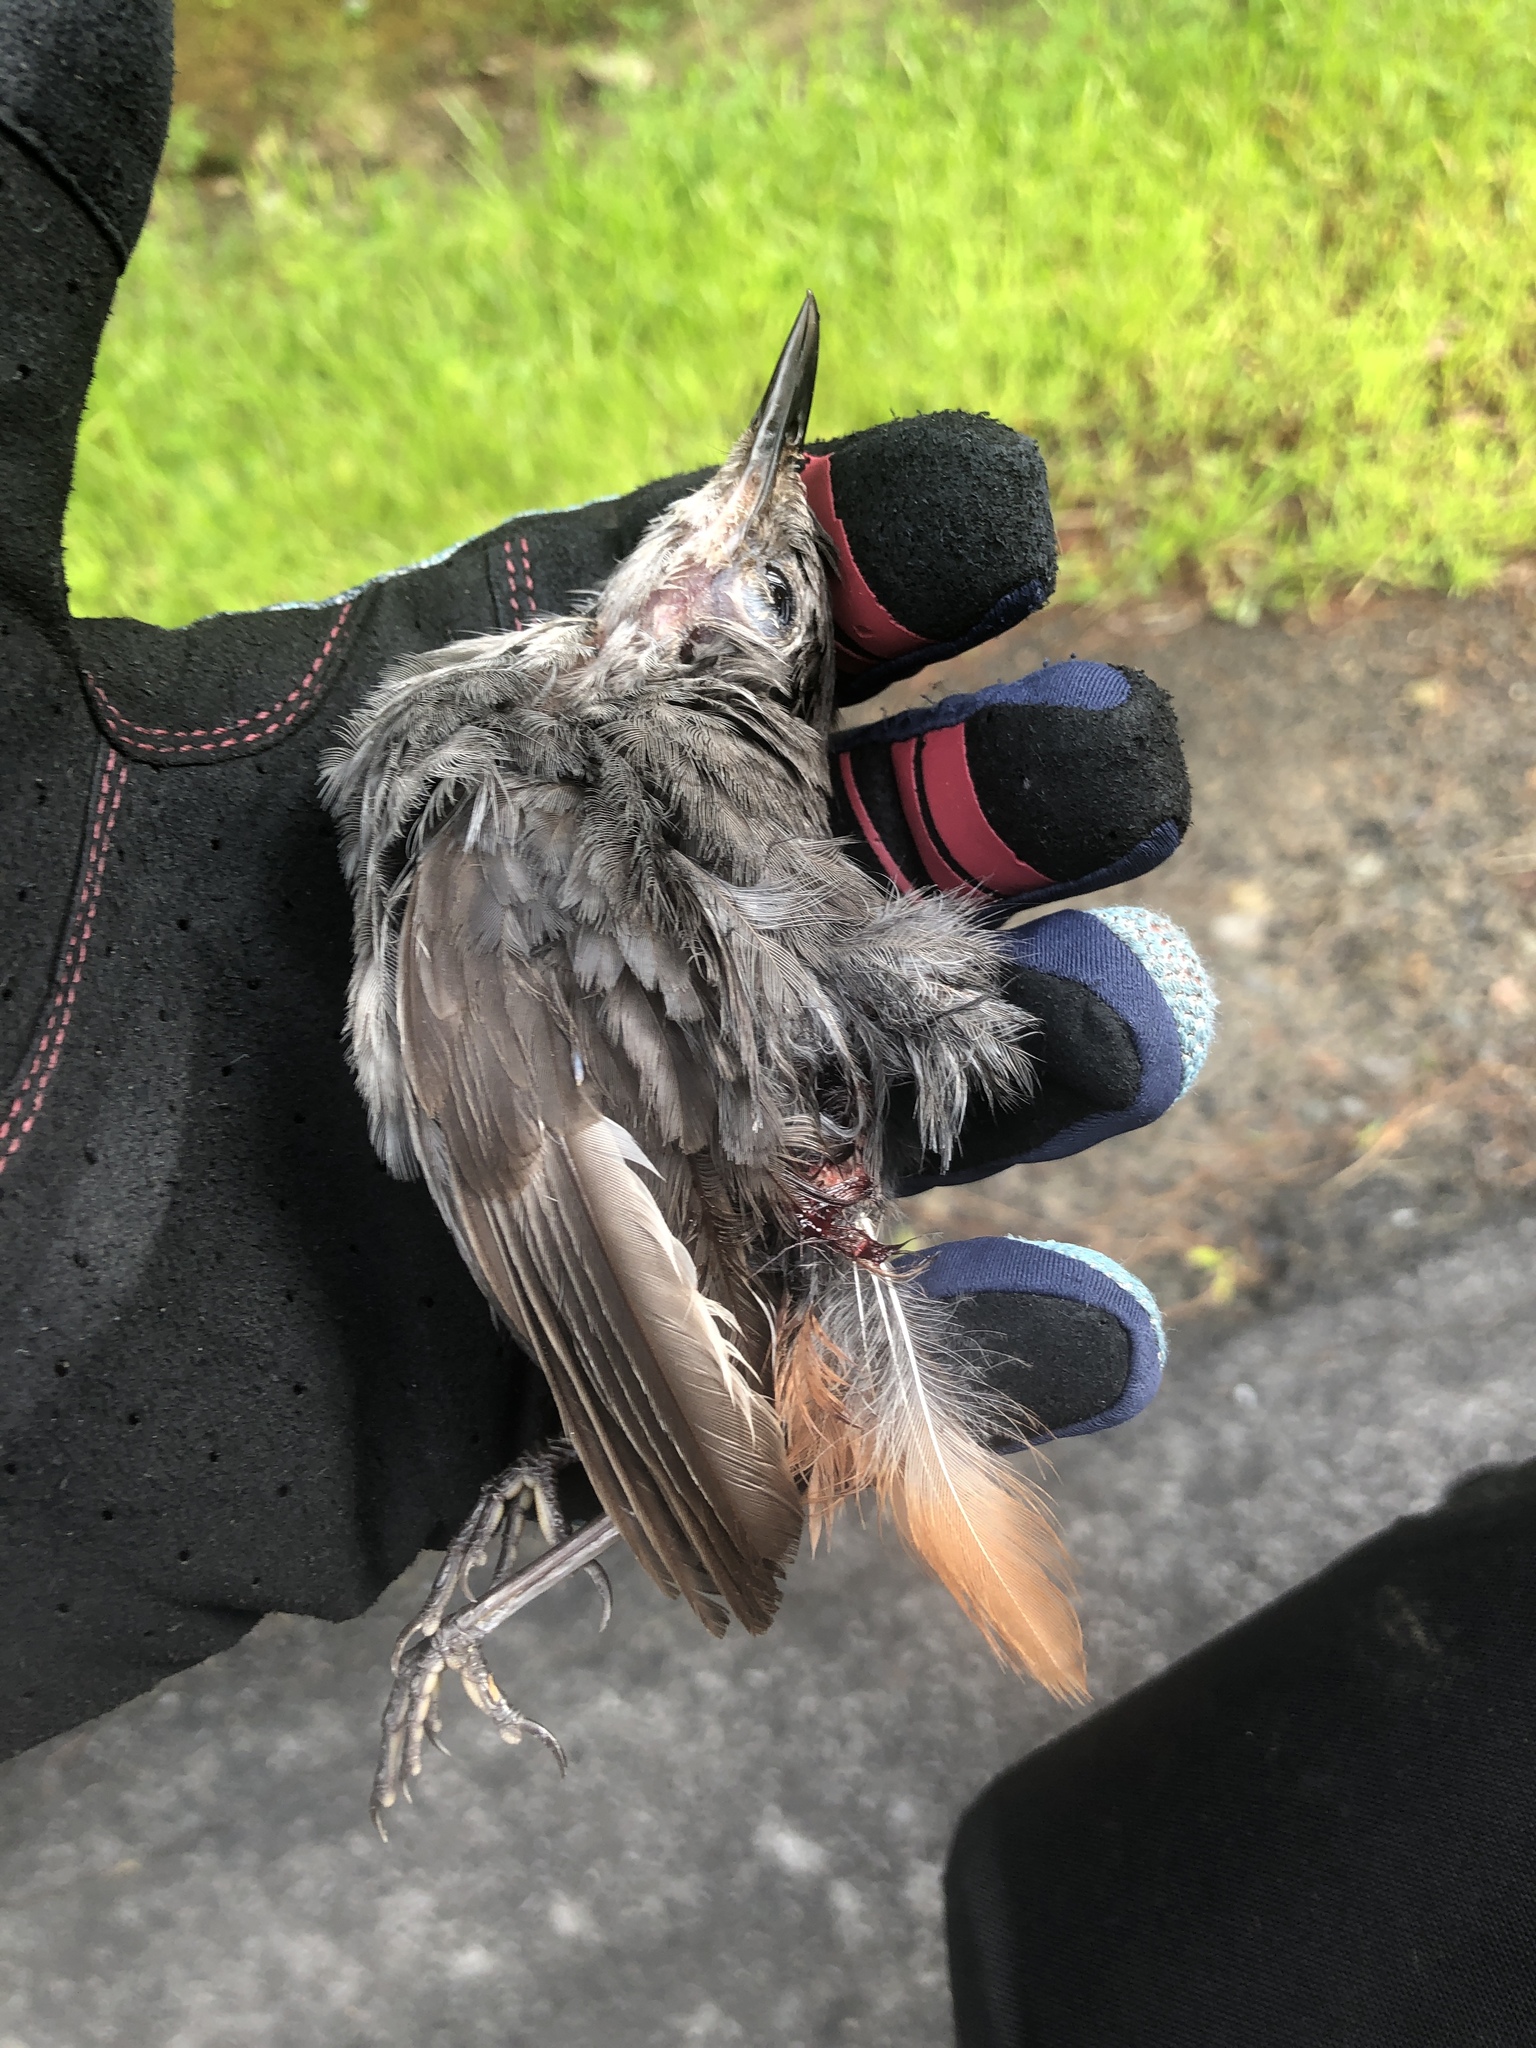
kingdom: Animalia
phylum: Chordata
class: Aves
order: Passeriformes
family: Mimidae
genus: Dumetella
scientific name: Dumetella carolinensis
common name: Gray catbird
